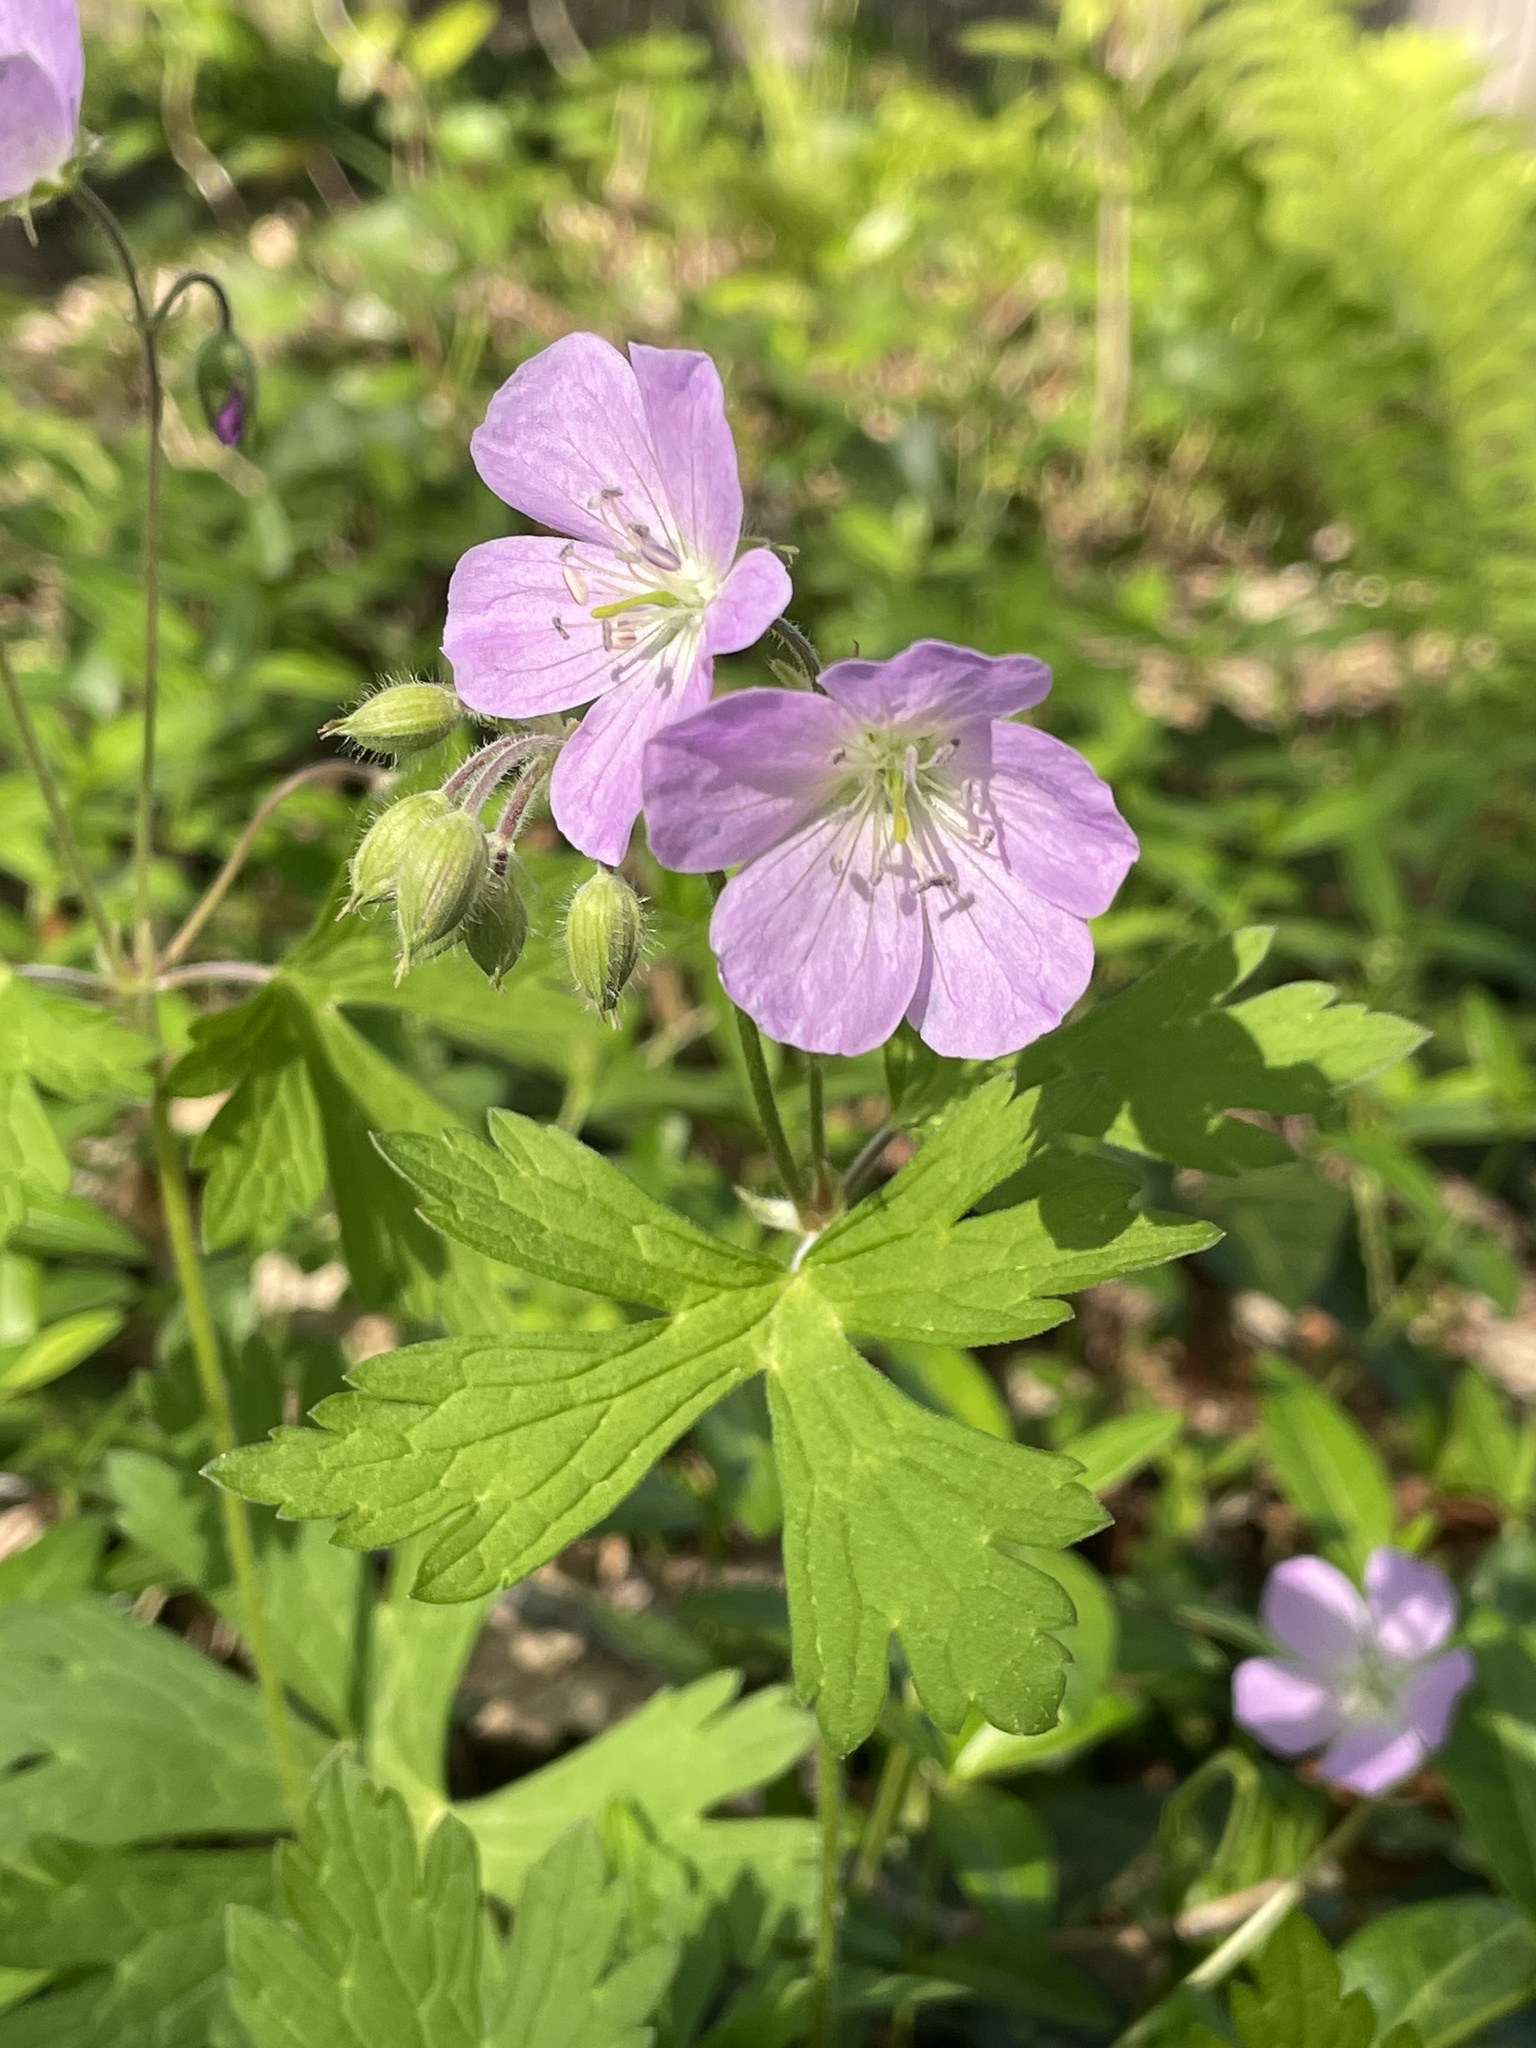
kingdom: Plantae
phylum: Tracheophyta
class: Magnoliopsida
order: Geraniales
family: Geraniaceae
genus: Geranium
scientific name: Geranium maculatum
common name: Spotted geranium
